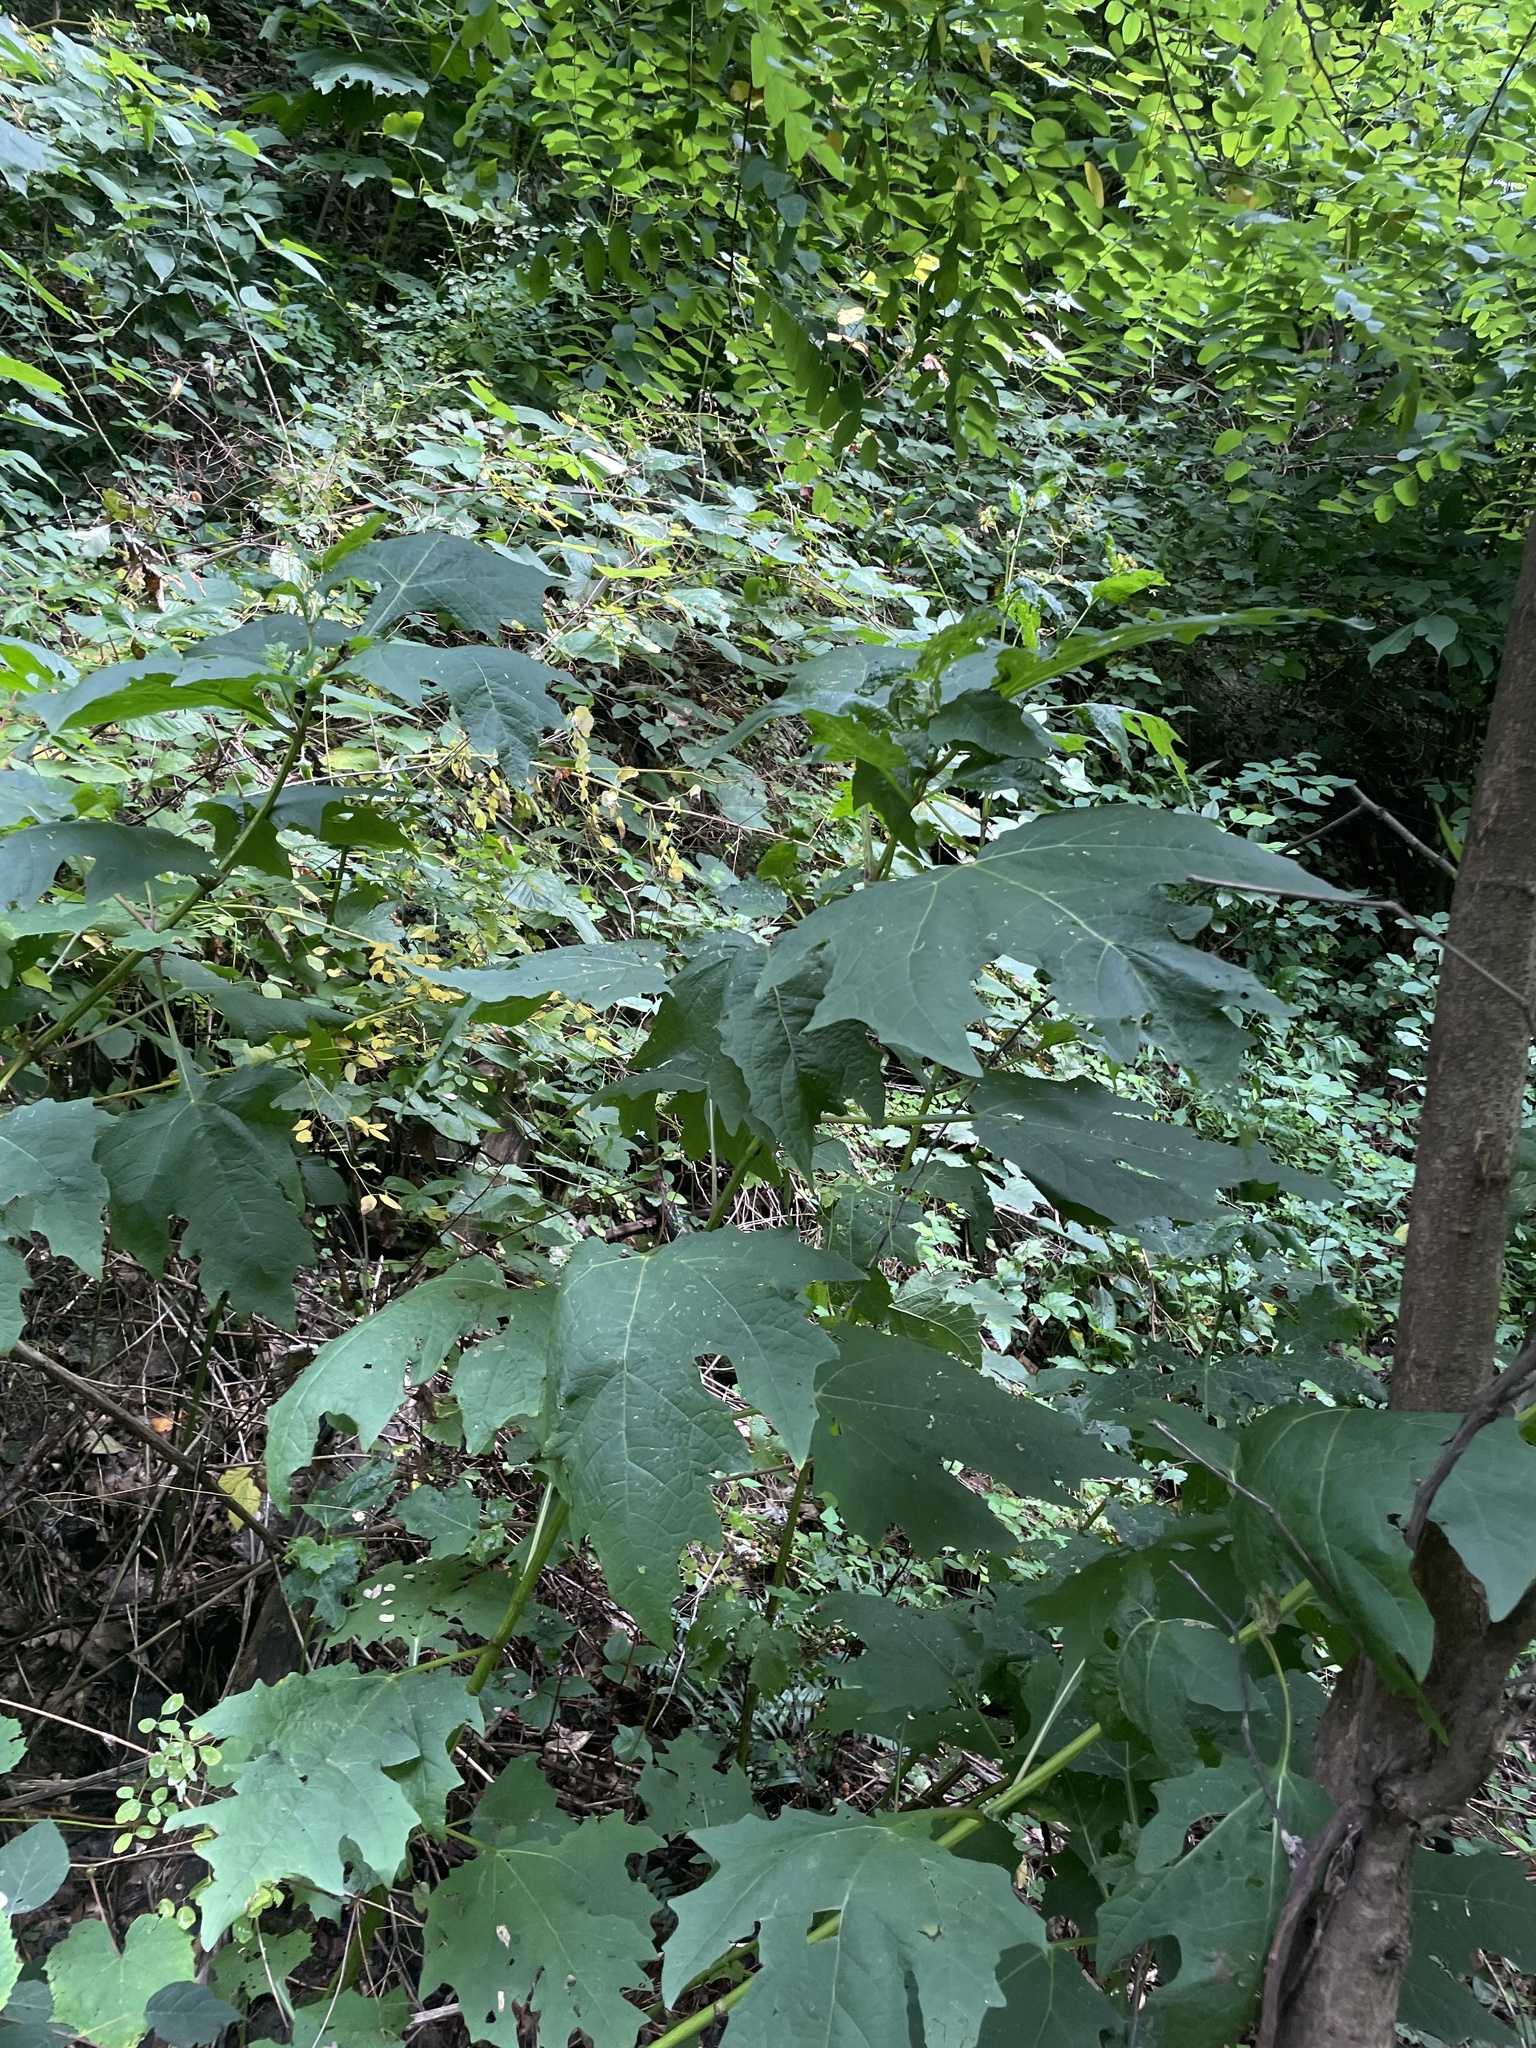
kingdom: Plantae
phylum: Tracheophyta
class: Magnoliopsida
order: Asterales
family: Asteraceae
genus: Smallanthus
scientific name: Smallanthus uvedalia
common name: Bear's-foot
